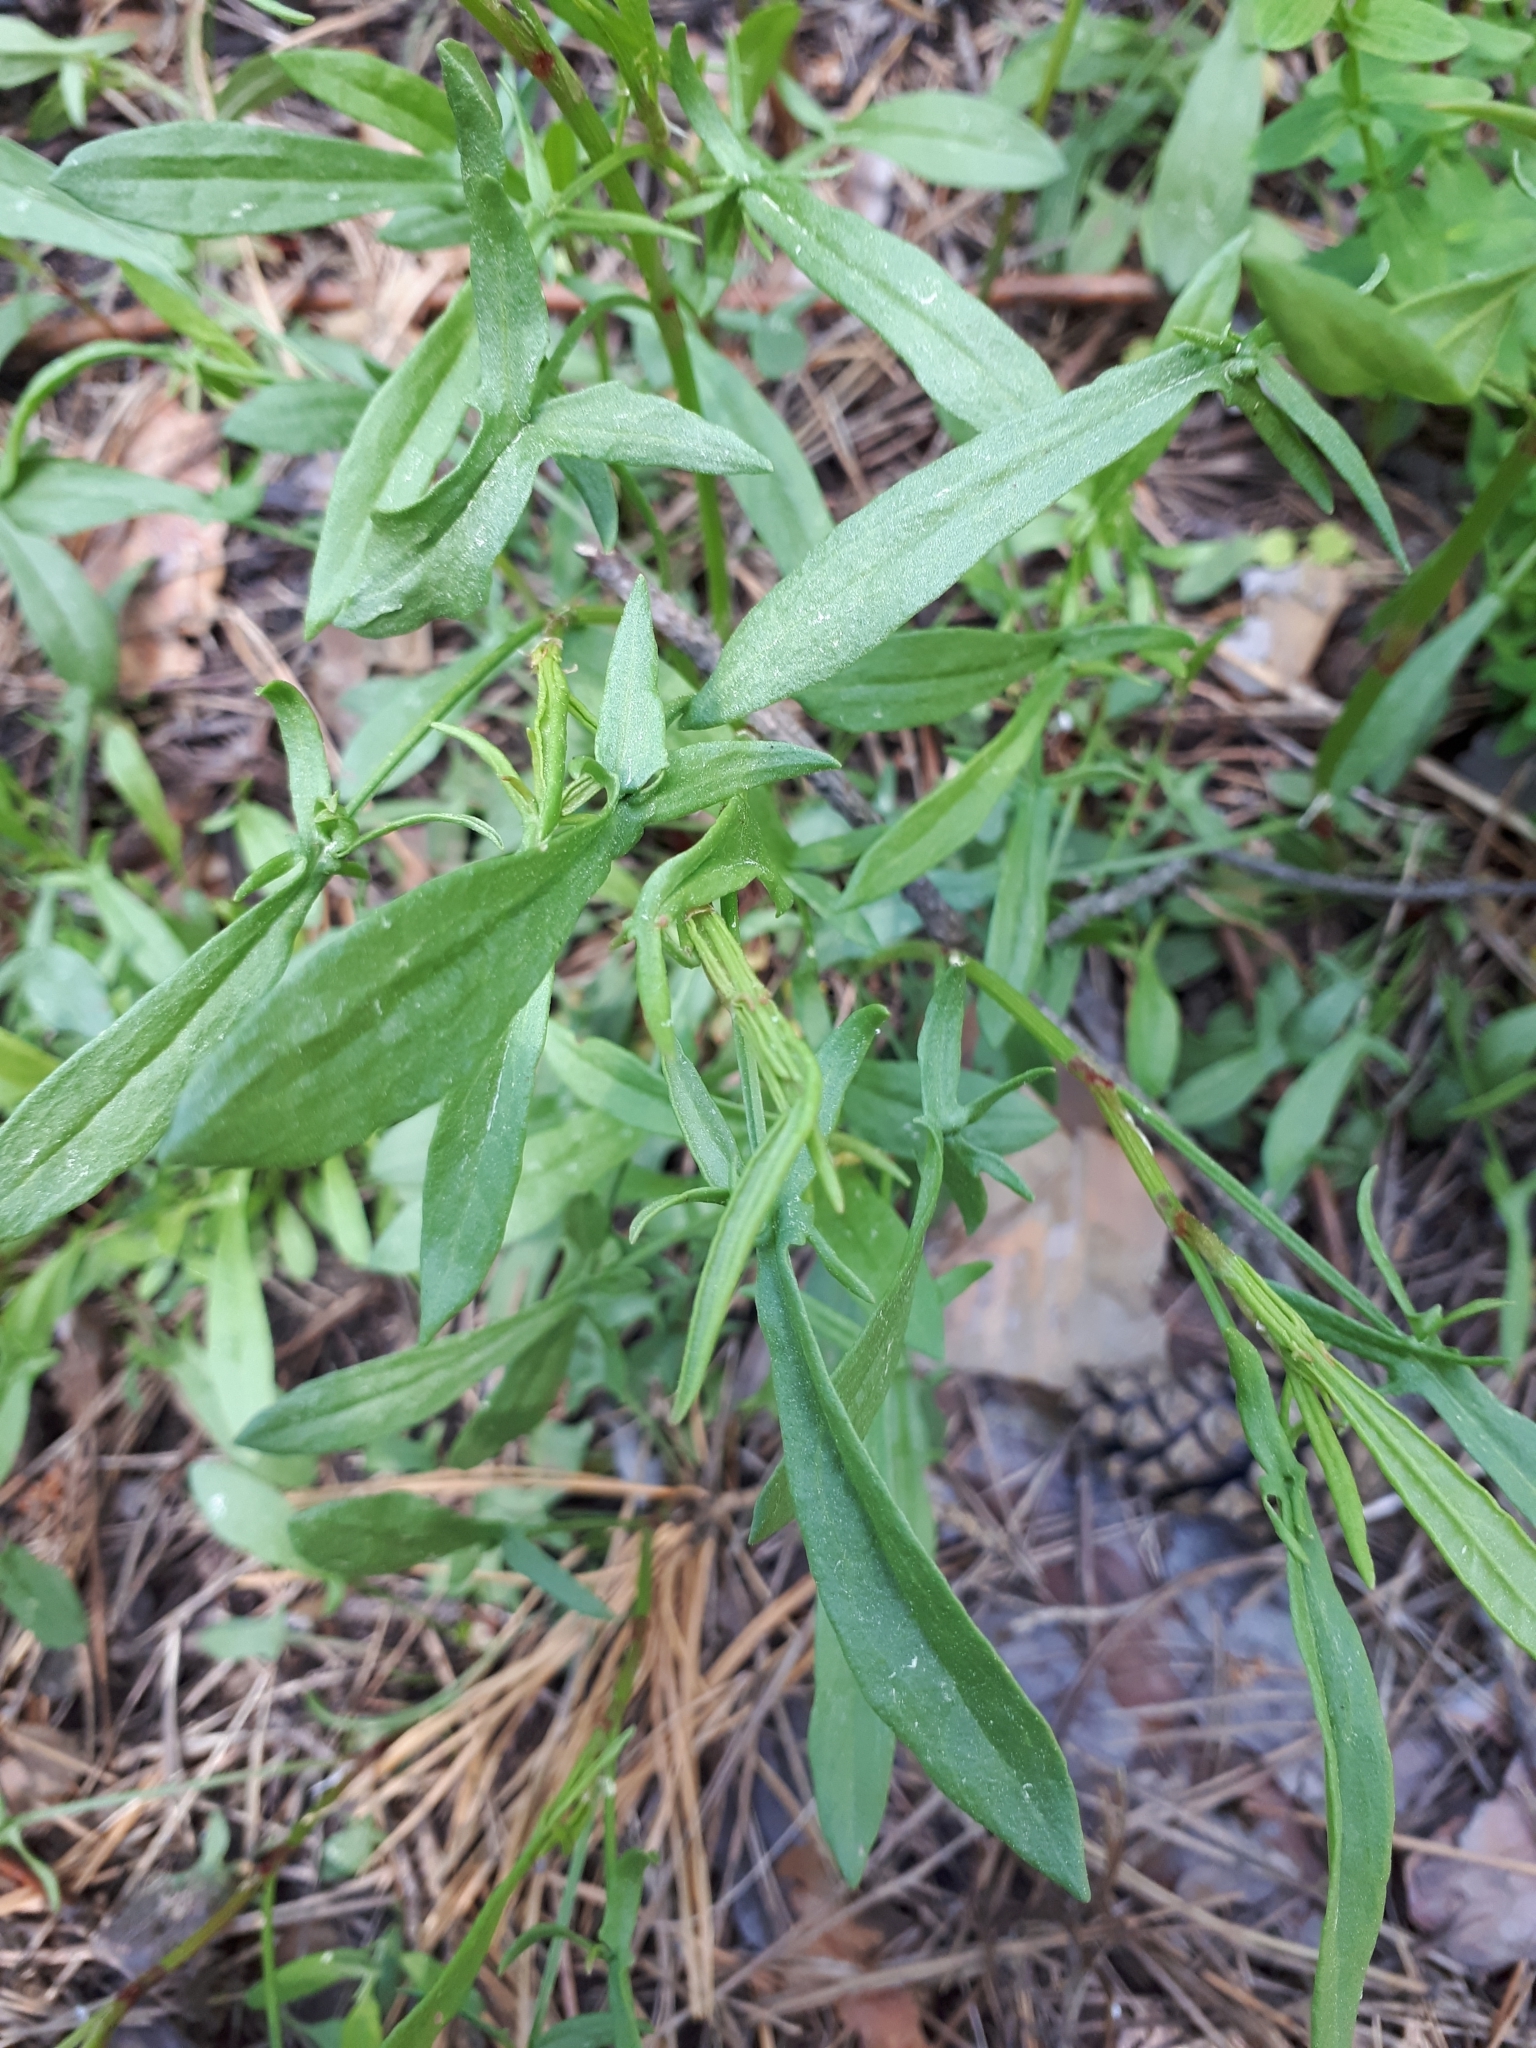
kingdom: Plantae
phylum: Tracheophyta
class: Magnoliopsida
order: Caryophyllales
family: Polygonaceae
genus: Rumex
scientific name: Rumex acetosella
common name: Common sheep sorrel
